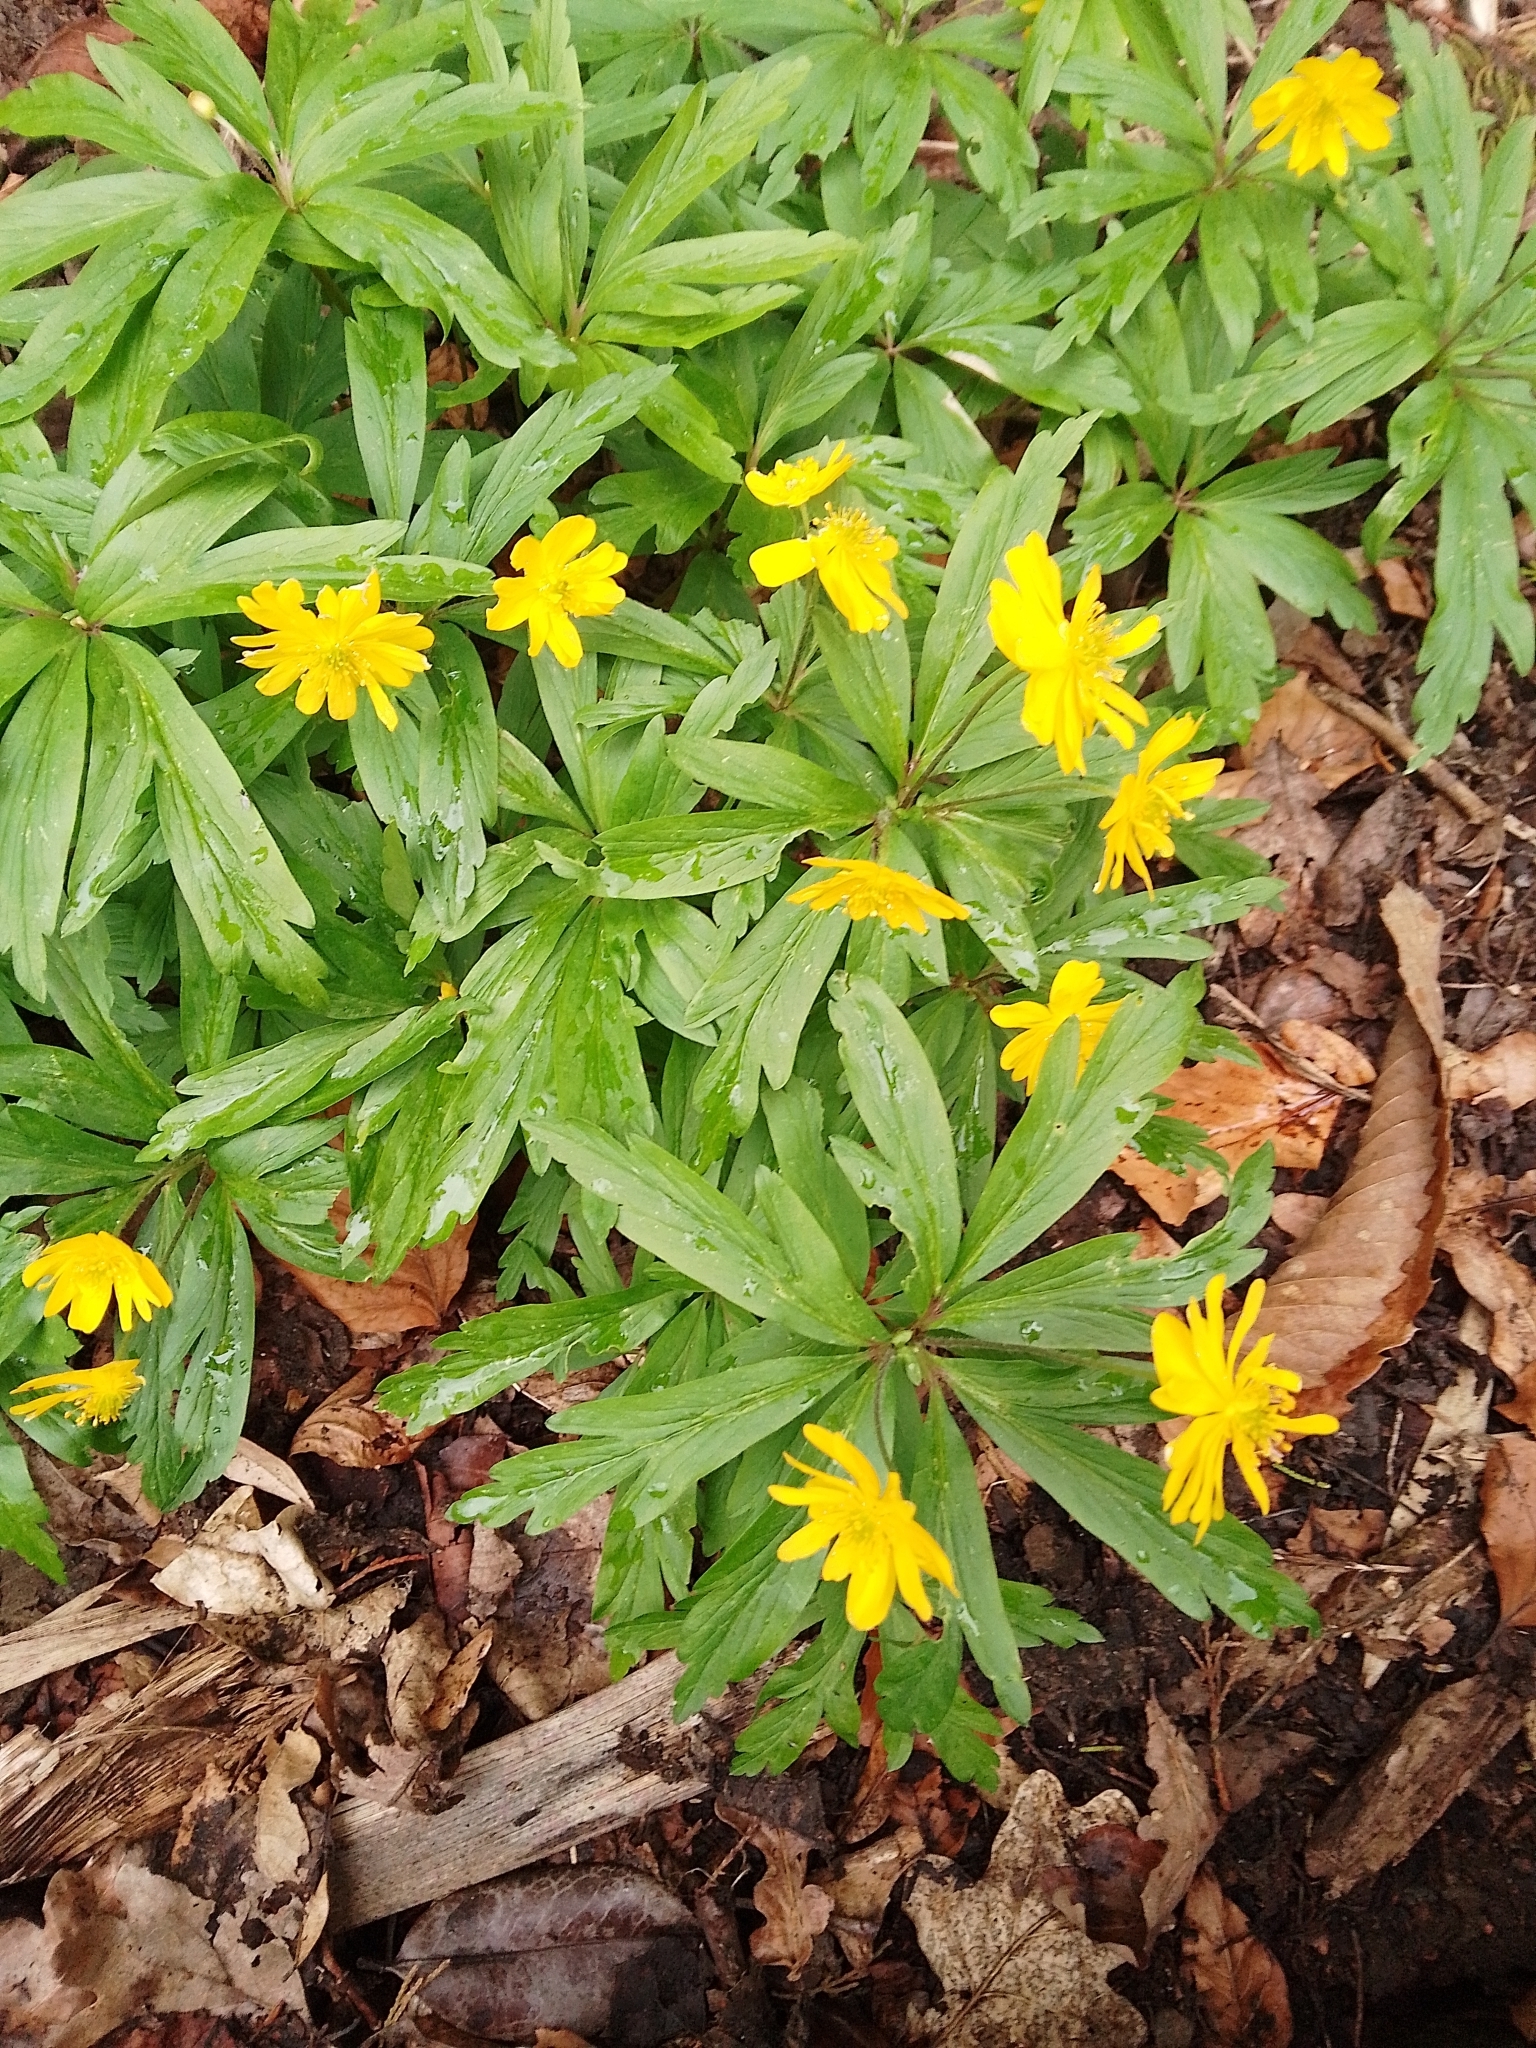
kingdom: Plantae
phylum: Tracheophyta
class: Magnoliopsida
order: Ranunculales
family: Ranunculaceae
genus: Anemone
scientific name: Anemone ranunculoides
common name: Yellow anemone
